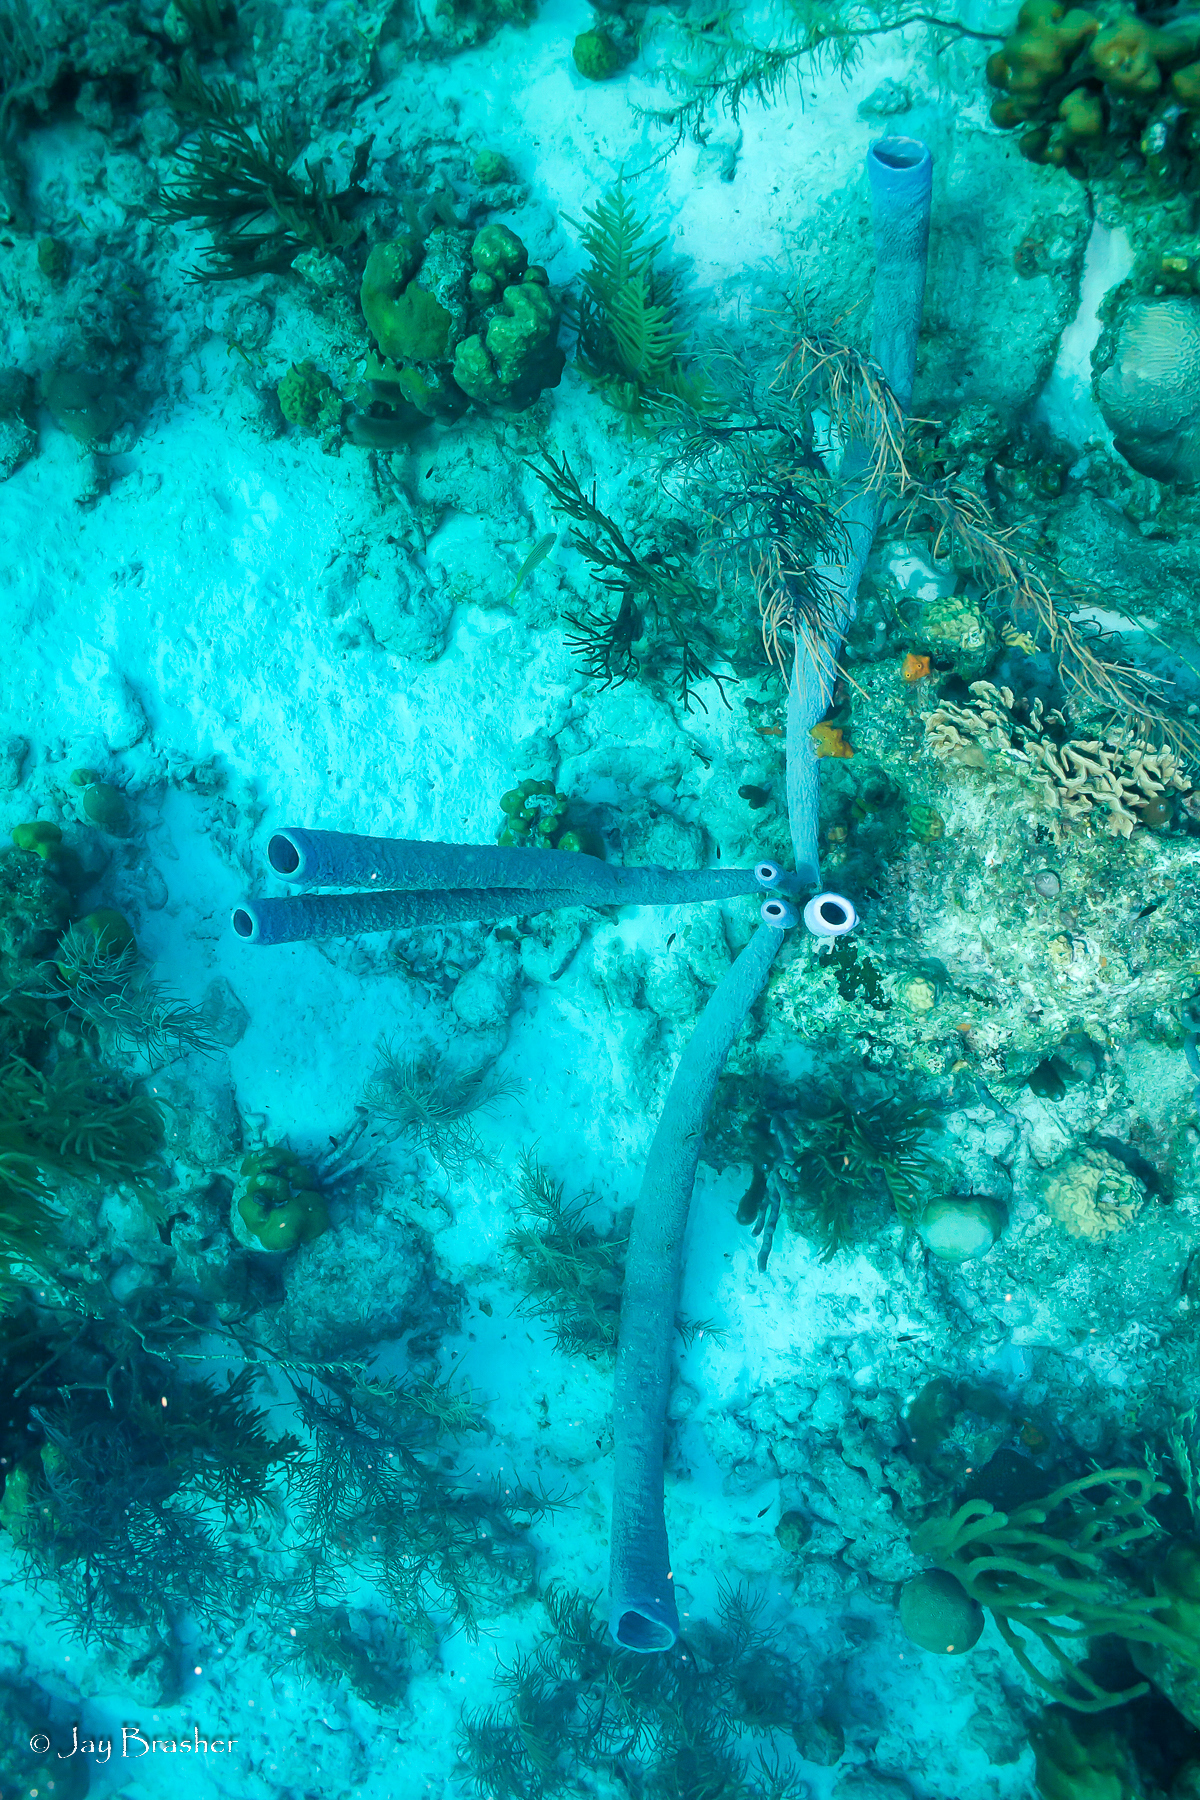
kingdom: Animalia
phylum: Porifera
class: Demospongiae
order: Verongiida
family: Aplysinidae
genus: Aplysina
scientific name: Aplysina archeri
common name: Stove-pipe sponge
